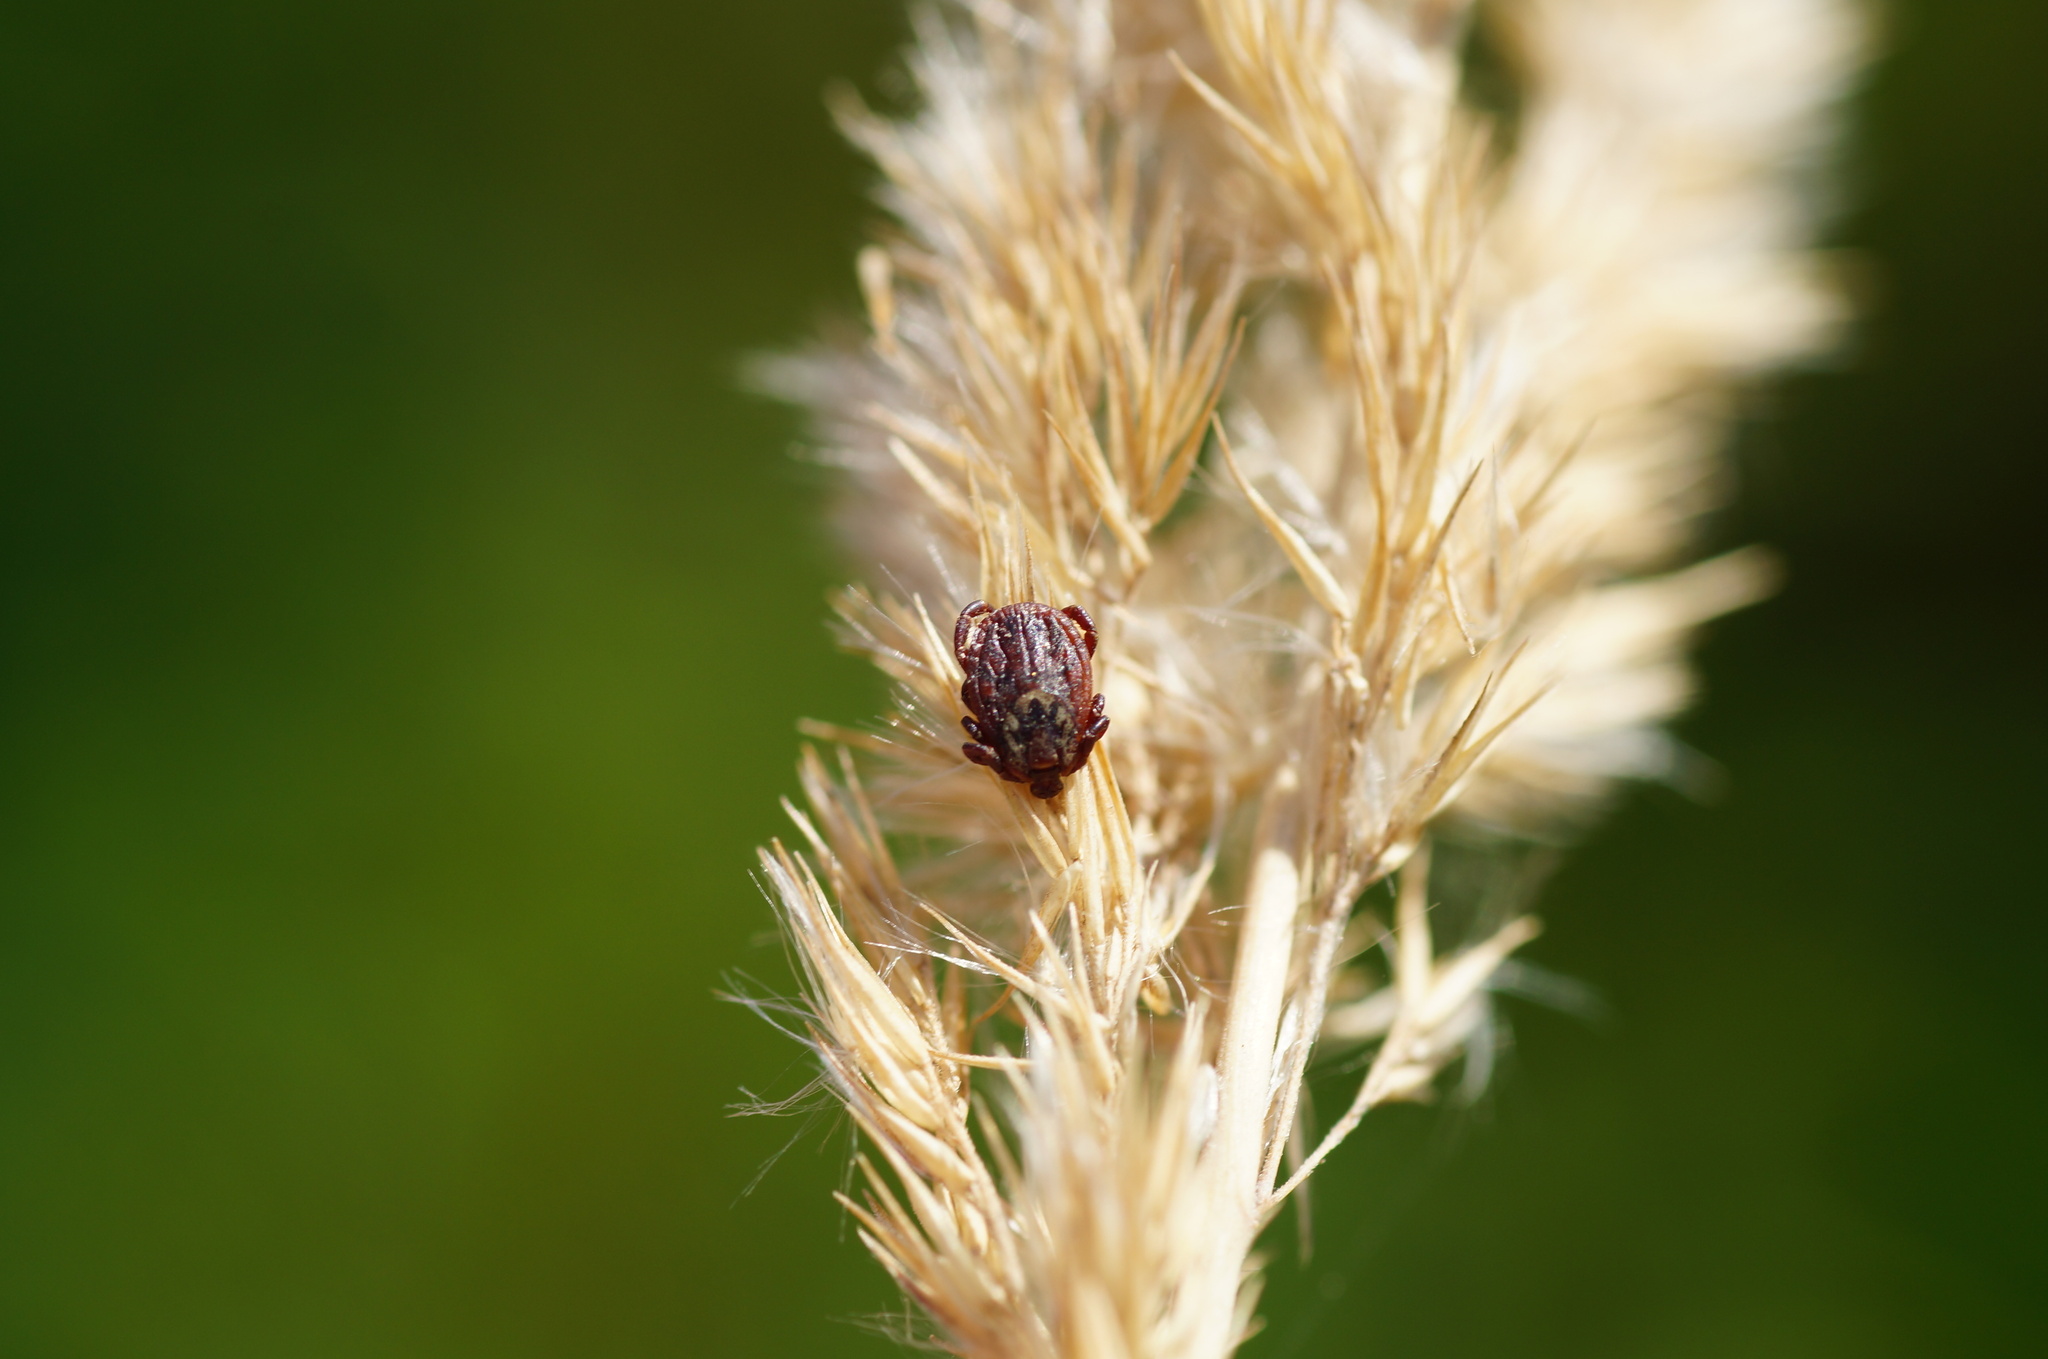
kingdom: Animalia
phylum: Arthropoda
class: Arachnida
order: Ixodida
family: Ixodidae
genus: Dermacentor
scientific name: Dermacentor reticulatus
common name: Ornate cow tick
